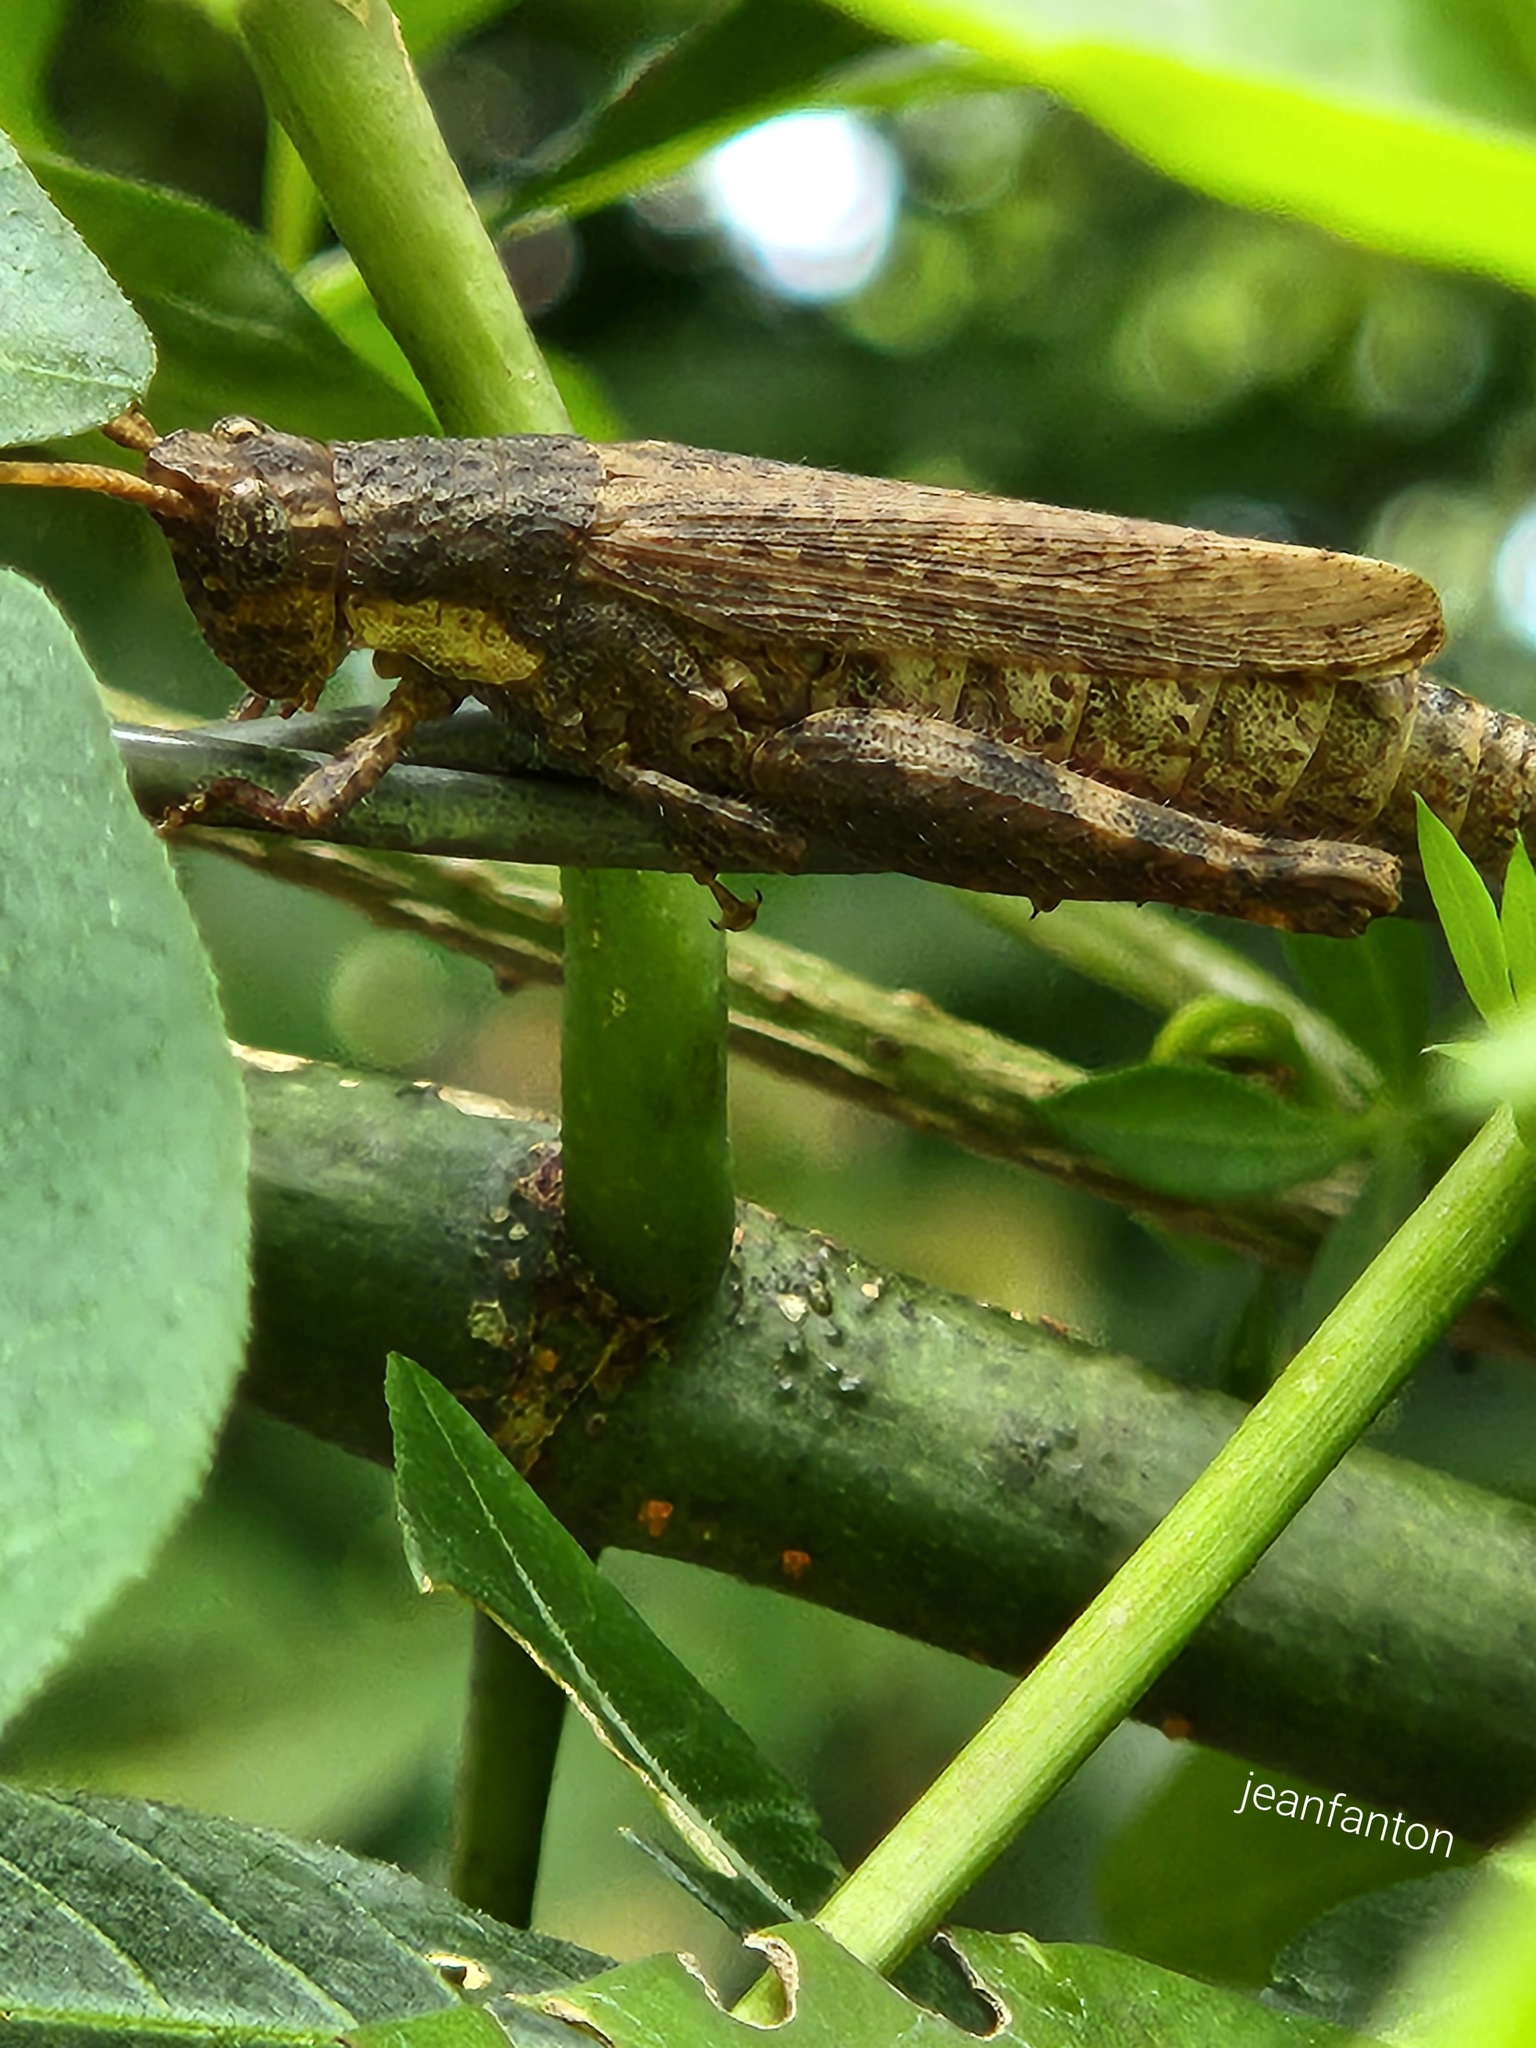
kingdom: Animalia
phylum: Arthropoda
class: Insecta
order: Orthoptera
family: Acrididae
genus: Vilerna
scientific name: Vilerna rugulosa
